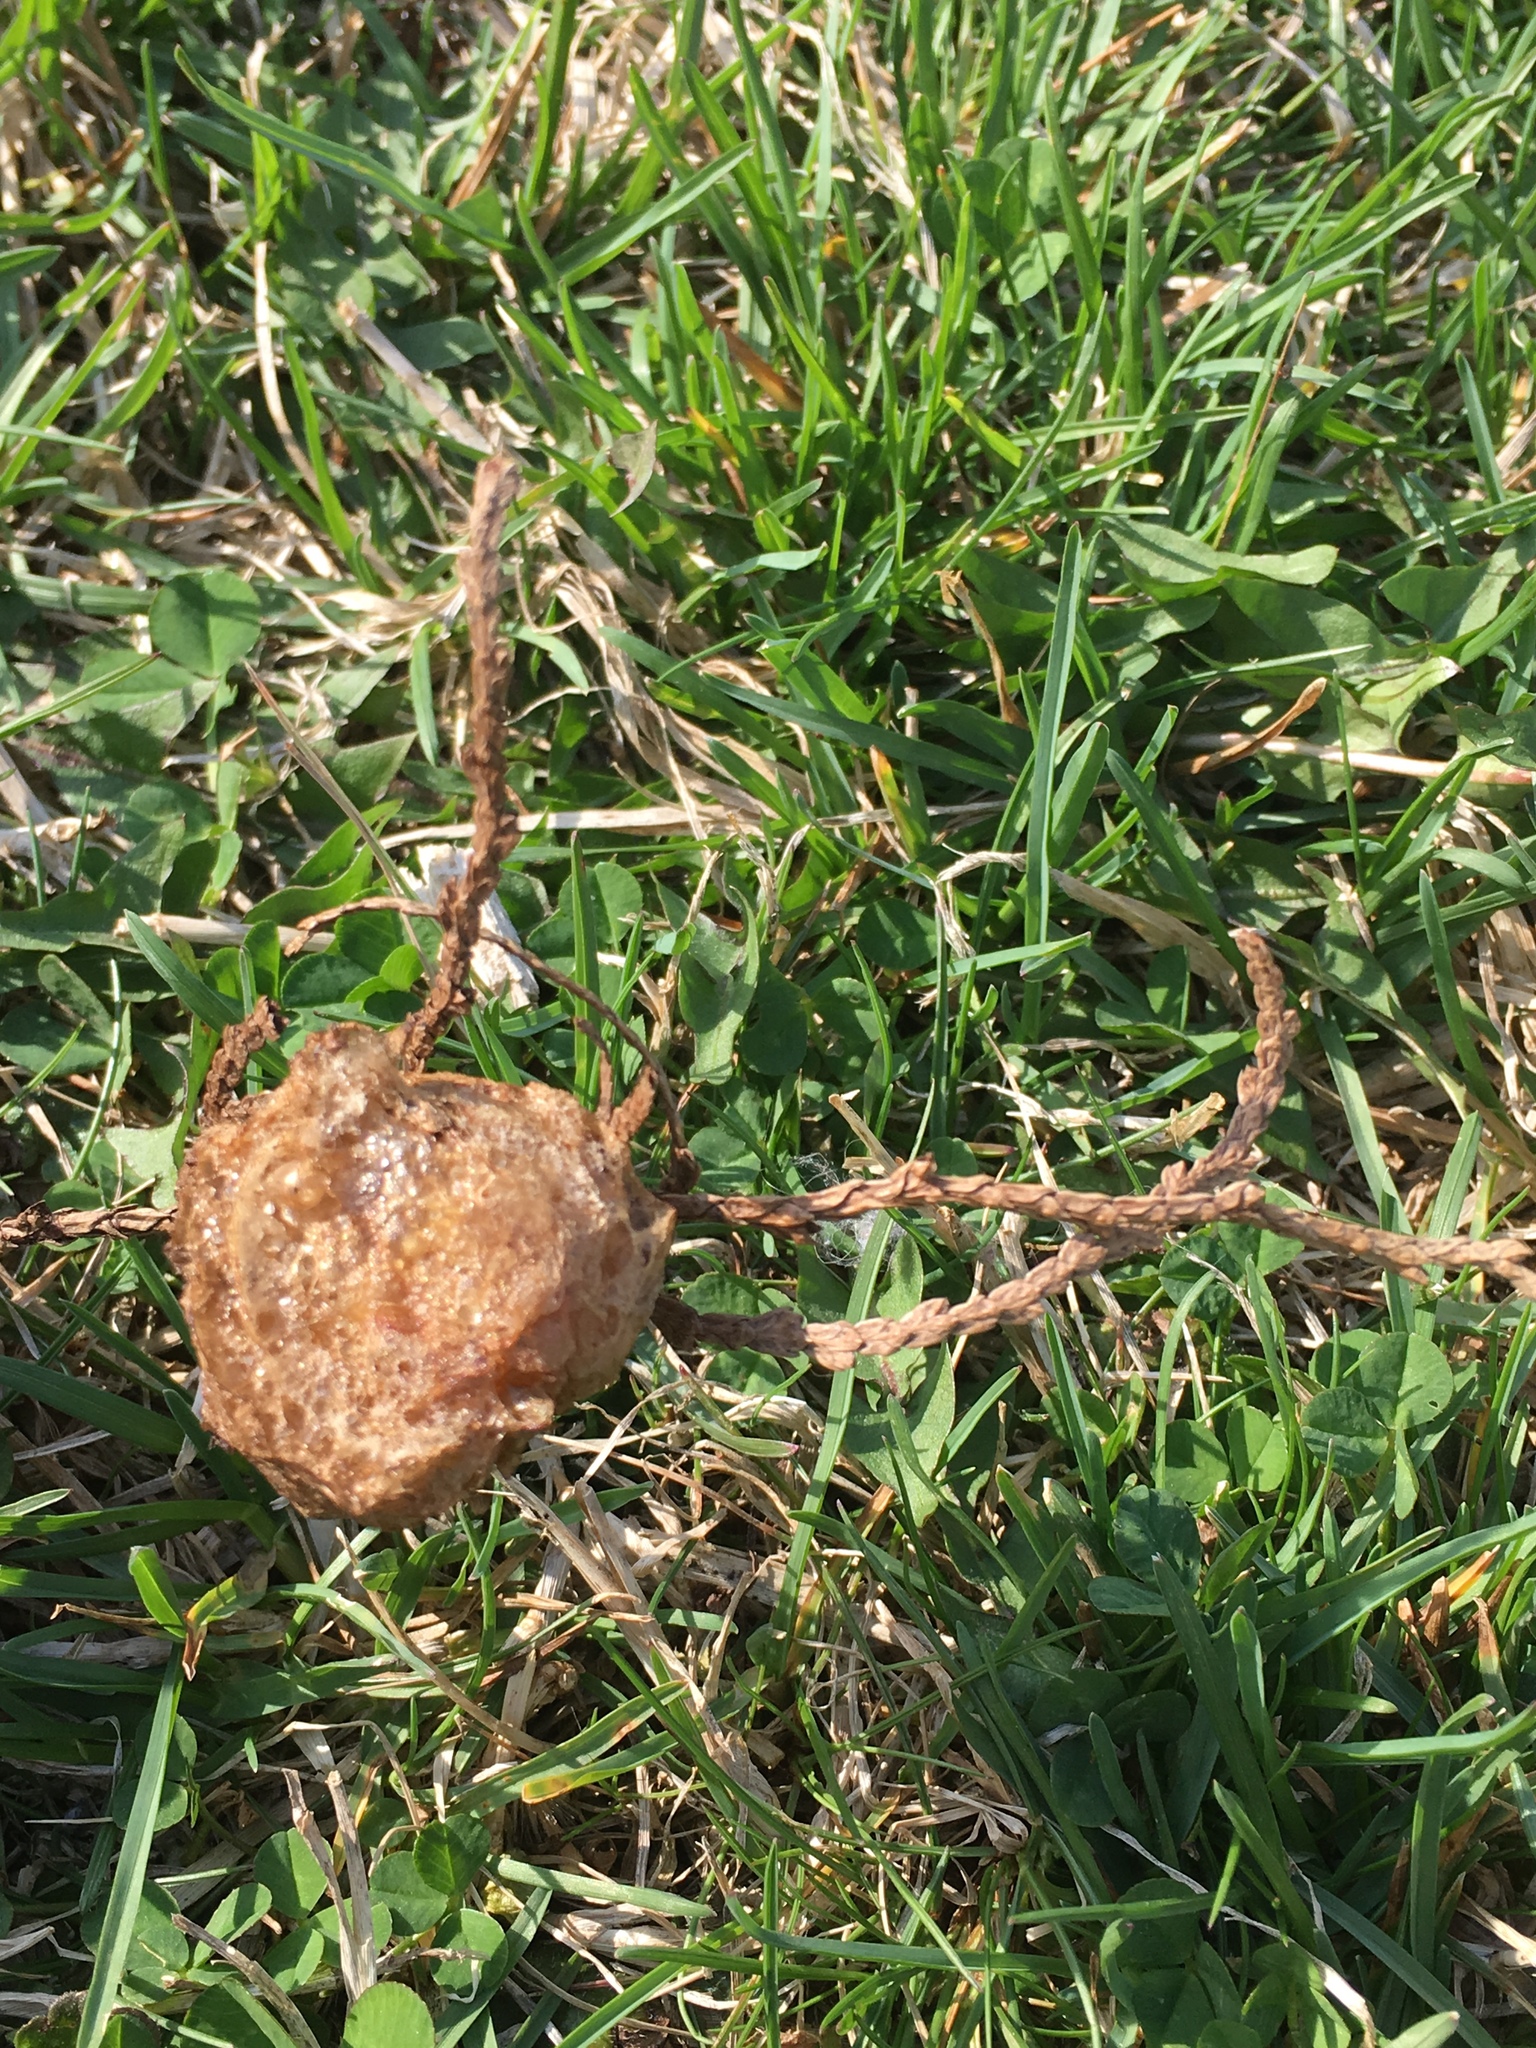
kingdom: Animalia
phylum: Arthropoda
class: Insecta
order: Mantodea
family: Mantidae
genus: Tenodera
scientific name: Tenodera sinensis
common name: Chinese mantis
